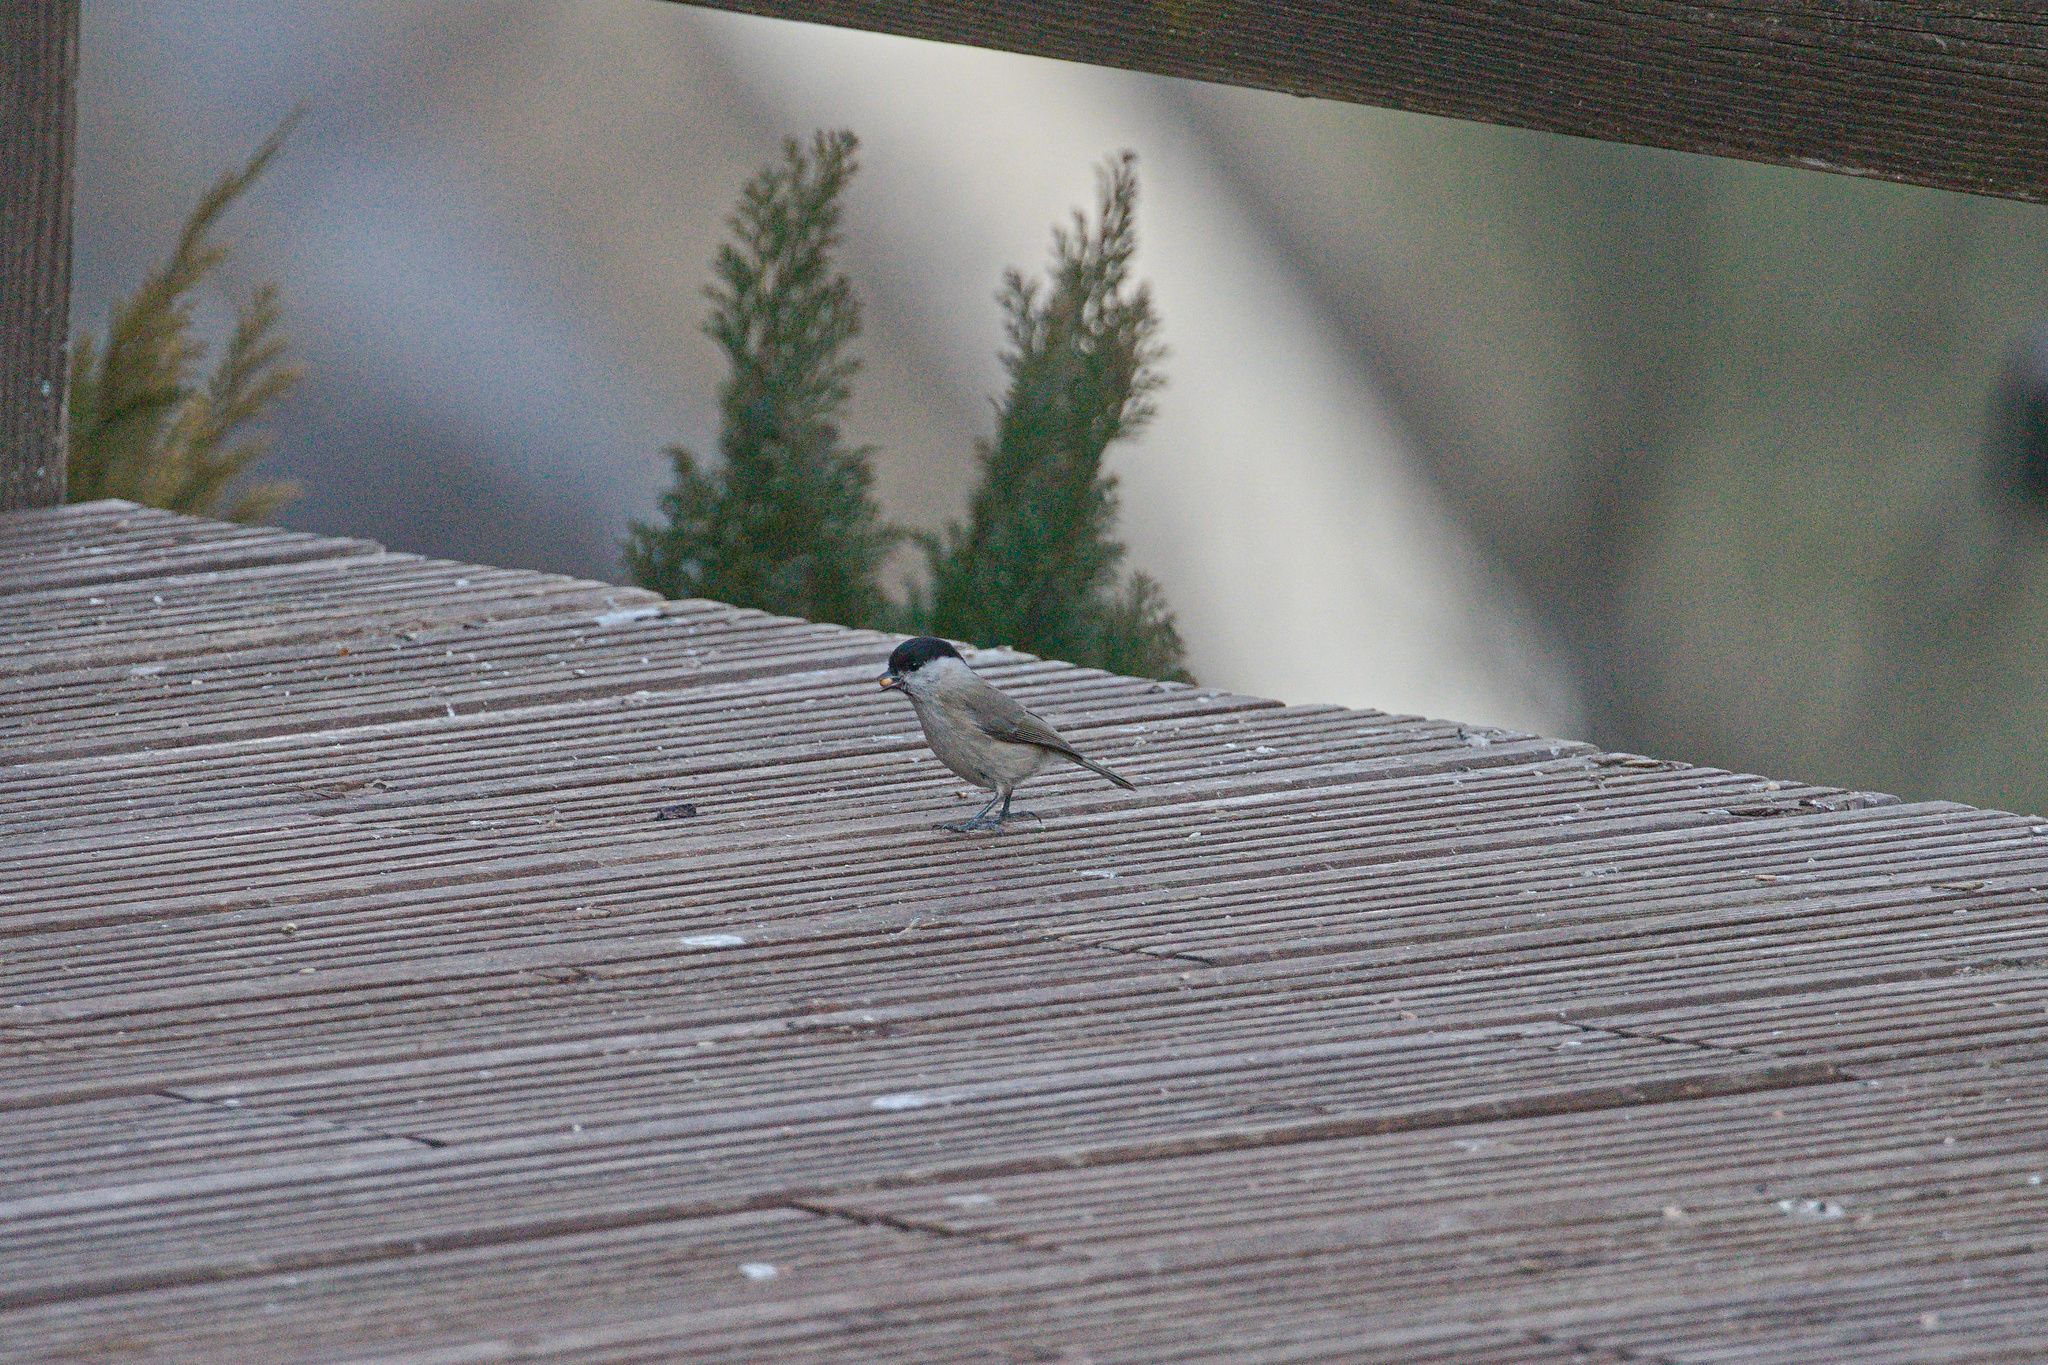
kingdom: Animalia
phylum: Chordata
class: Aves
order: Passeriformes
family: Paridae
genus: Poecile
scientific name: Poecile palustris
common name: Marsh tit
